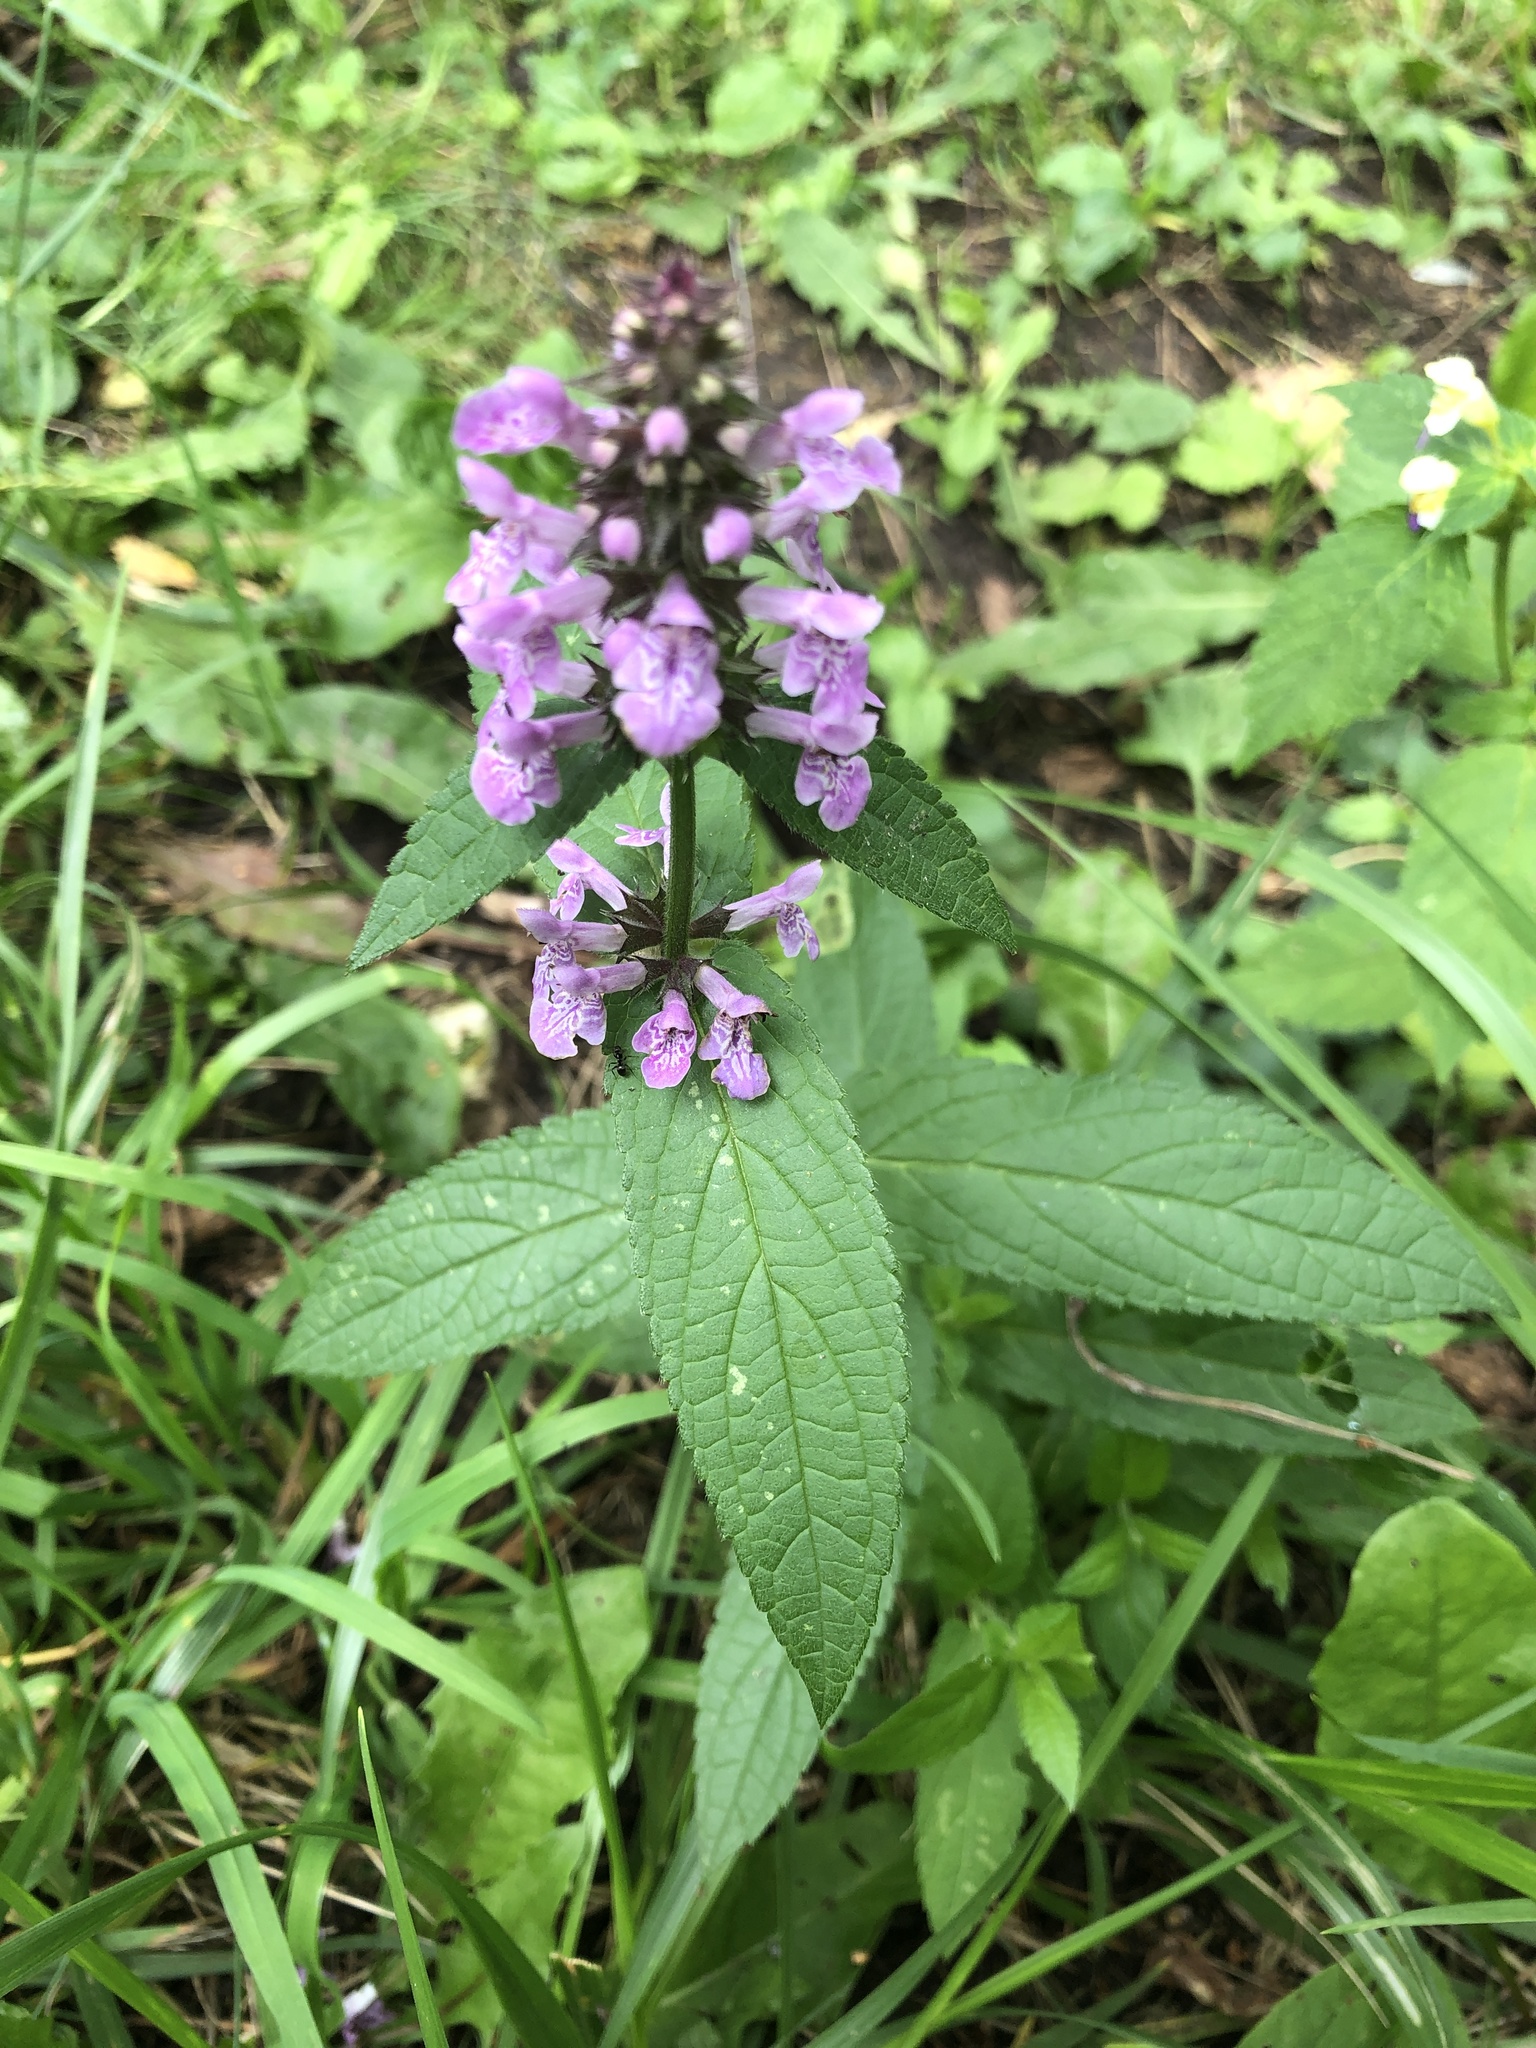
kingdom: Plantae
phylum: Tracheophyta
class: Magnoliopsida
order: Lamiales
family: Lamiaceae
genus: Stachys
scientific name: Stachys palustris
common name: Marsh woundwort
